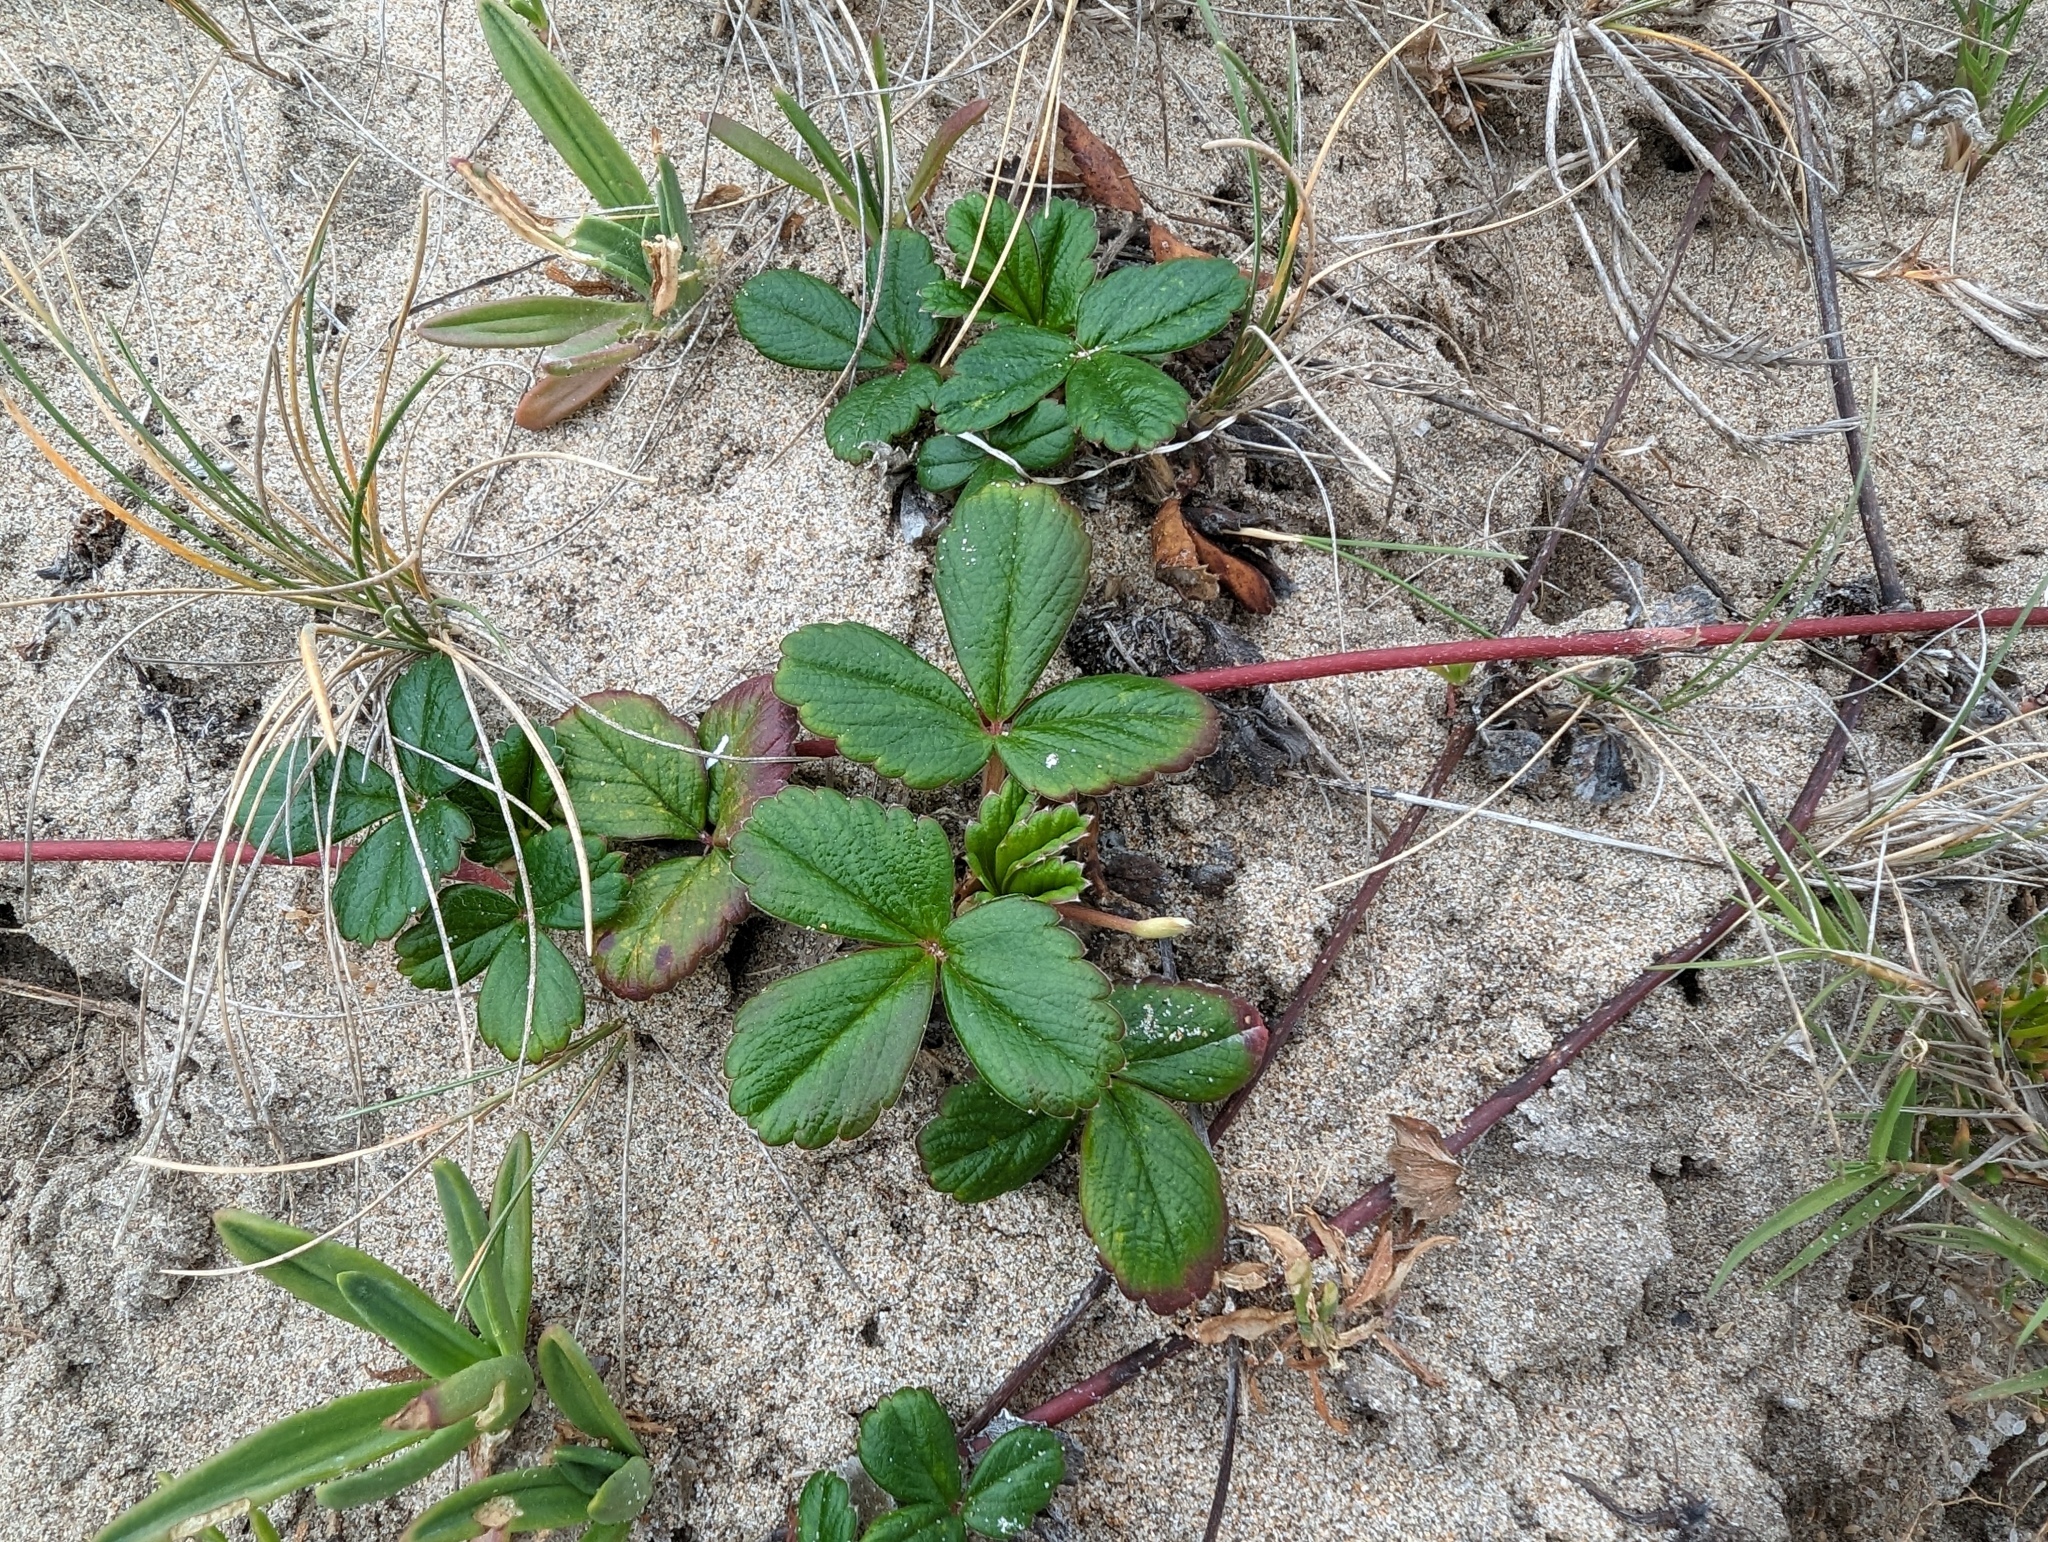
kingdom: Plantae
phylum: Tracheophyta
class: Magnoliopsida
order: Rosales
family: Rosaceae
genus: Fragaria
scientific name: Fragaria chiloensis
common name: Beach strawberry
